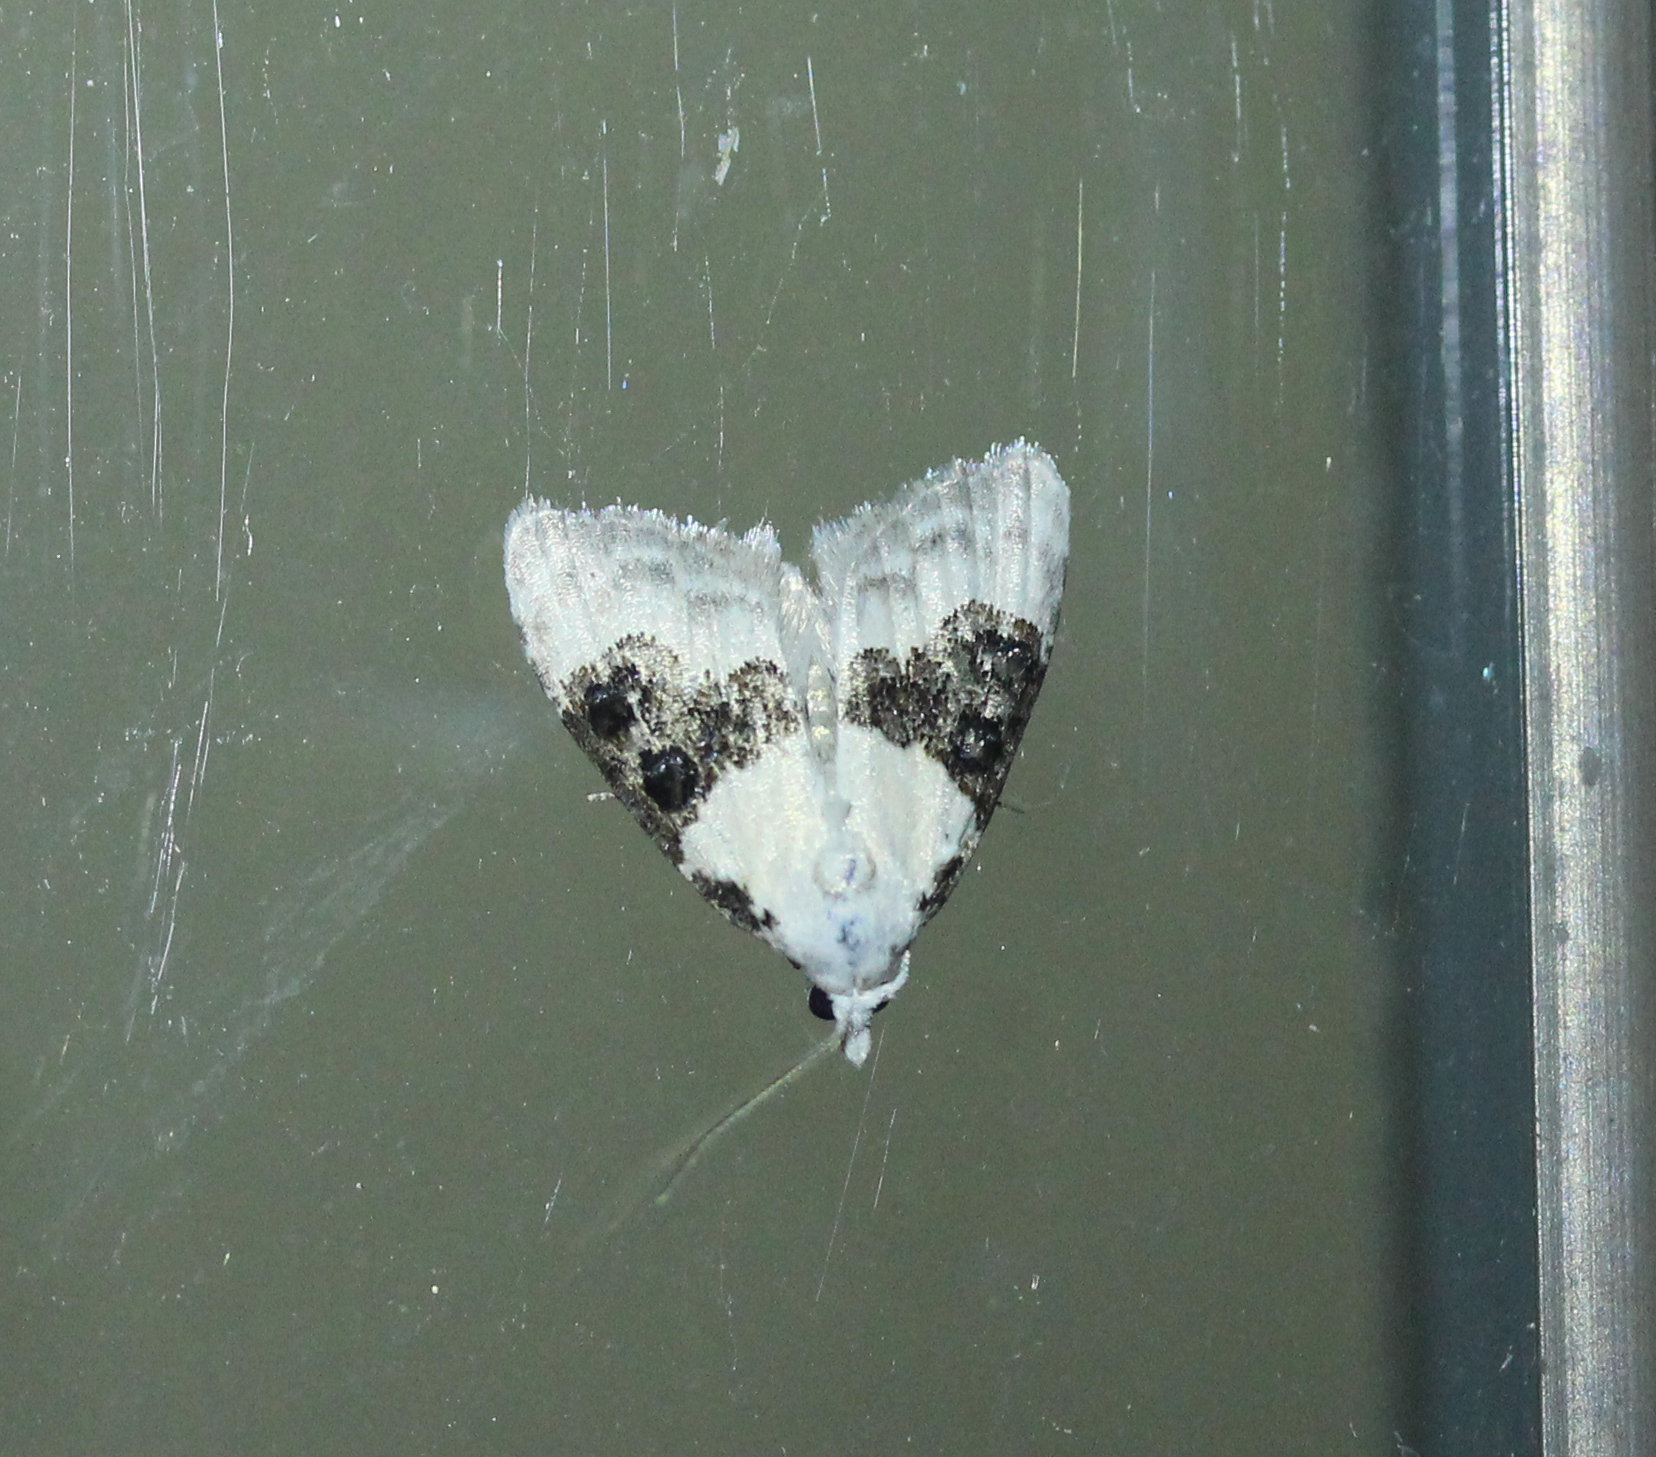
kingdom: Animalia
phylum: Arthropoda
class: Insecta
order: Lepidoptera
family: Nolidae
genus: Nola
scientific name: Nola pustulata
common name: Sharp-blotched nola moth
